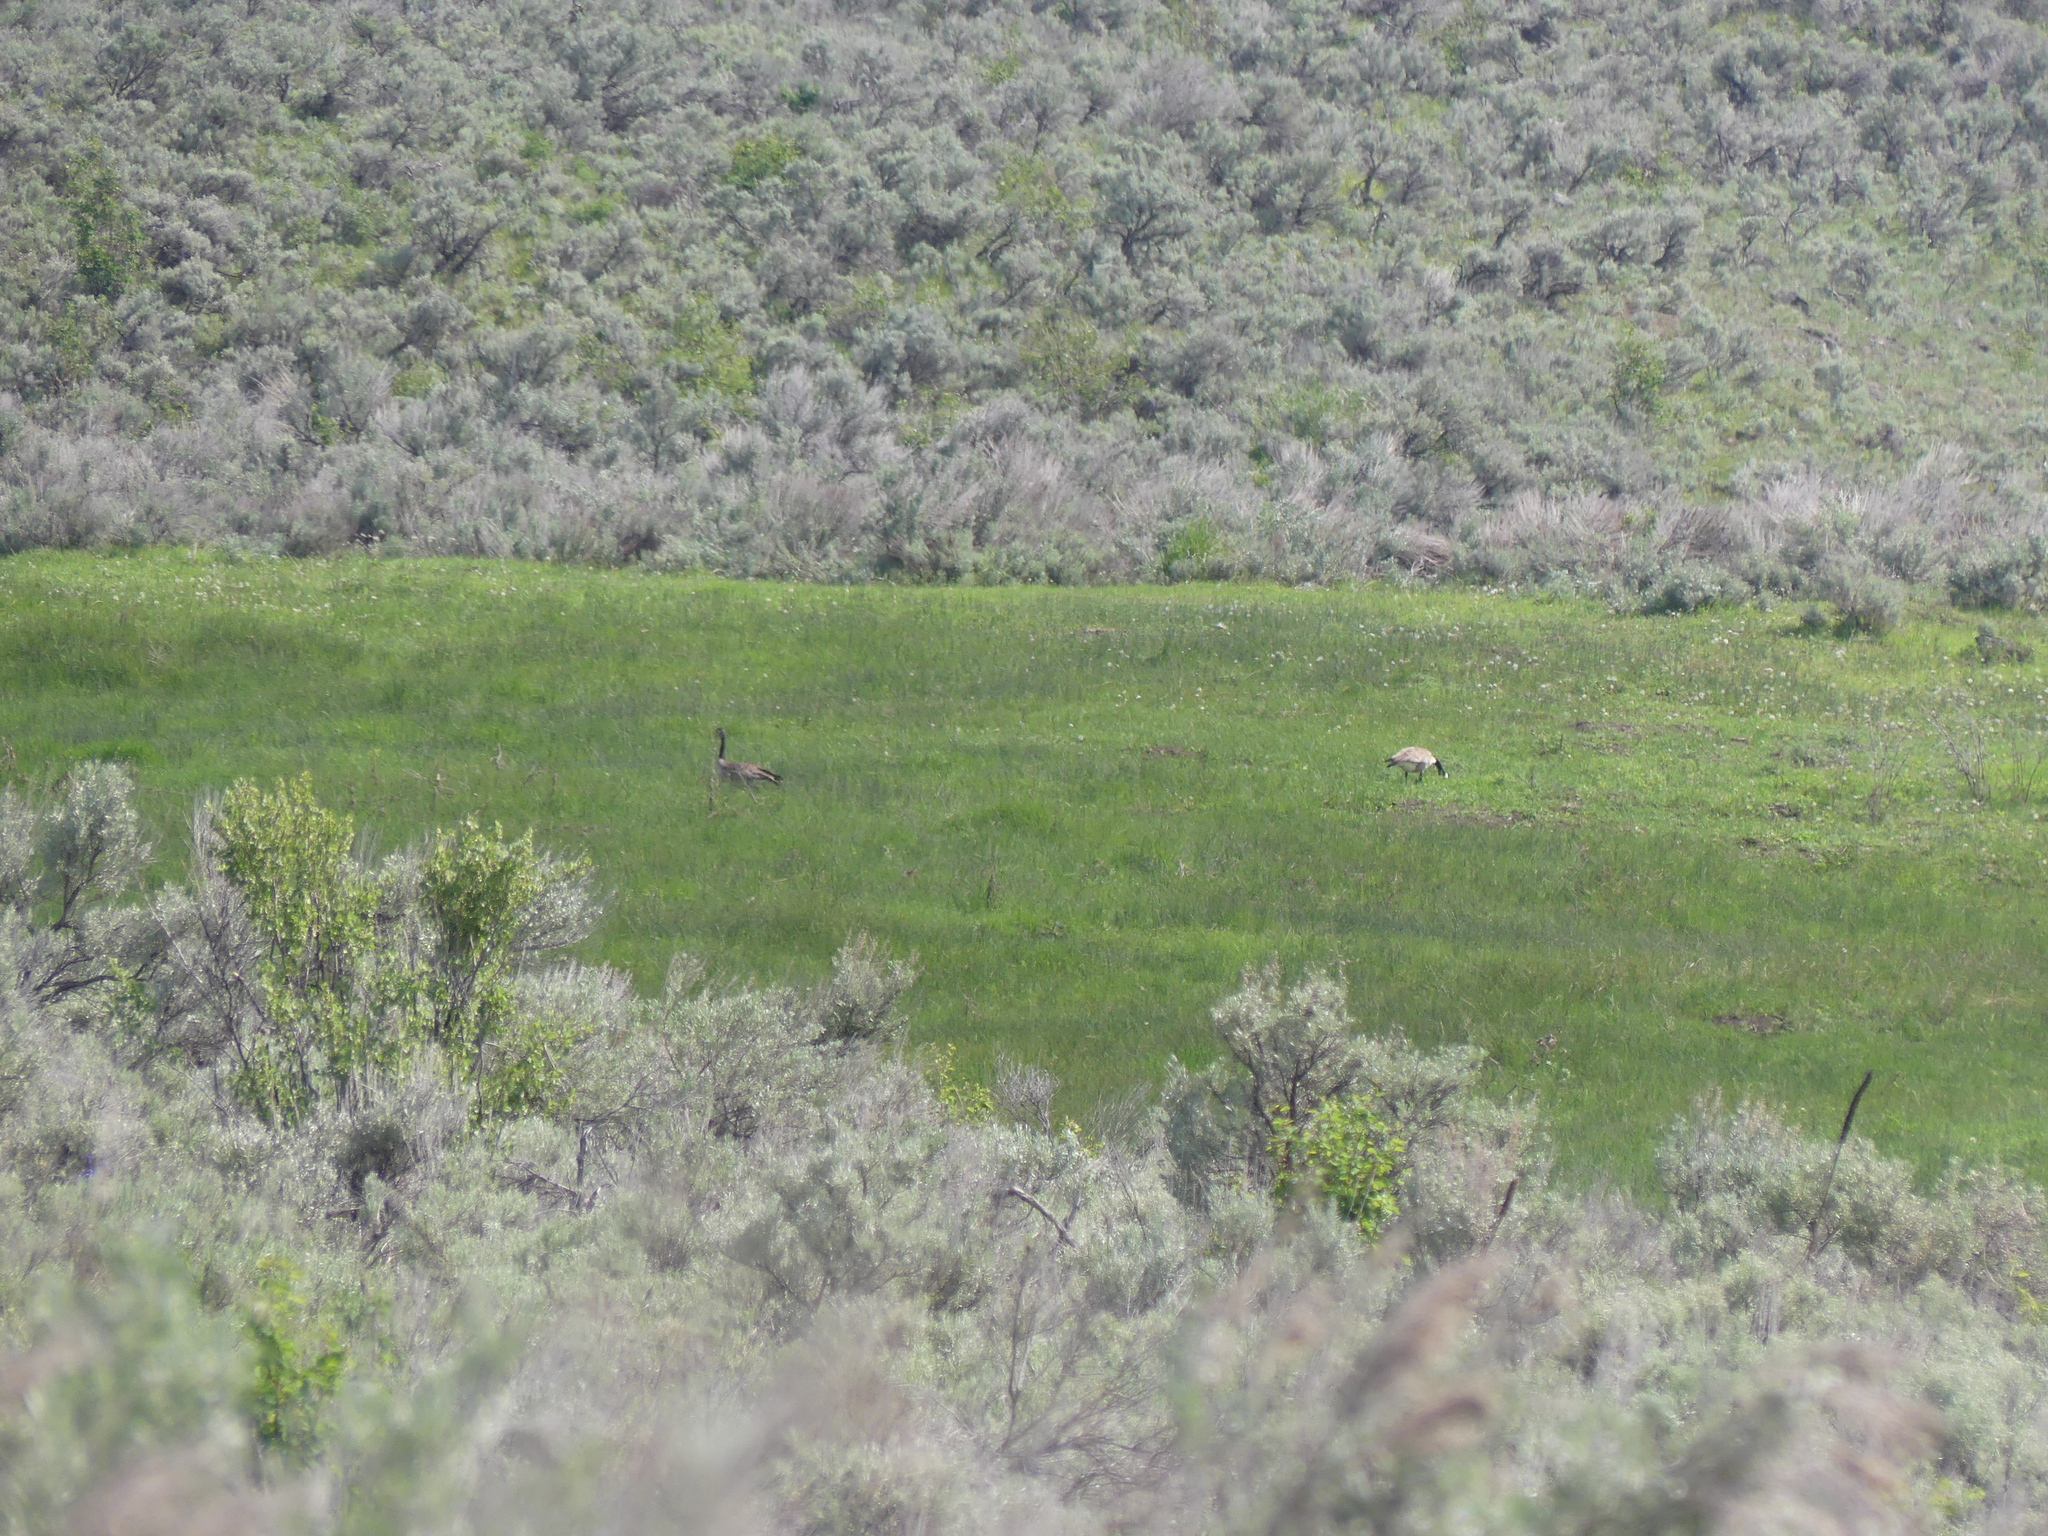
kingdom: Animalia
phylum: Chordata
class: Aves
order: Anseriformes
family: Anatidae
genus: Branta
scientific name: Branta canadensis
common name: Canada goose
